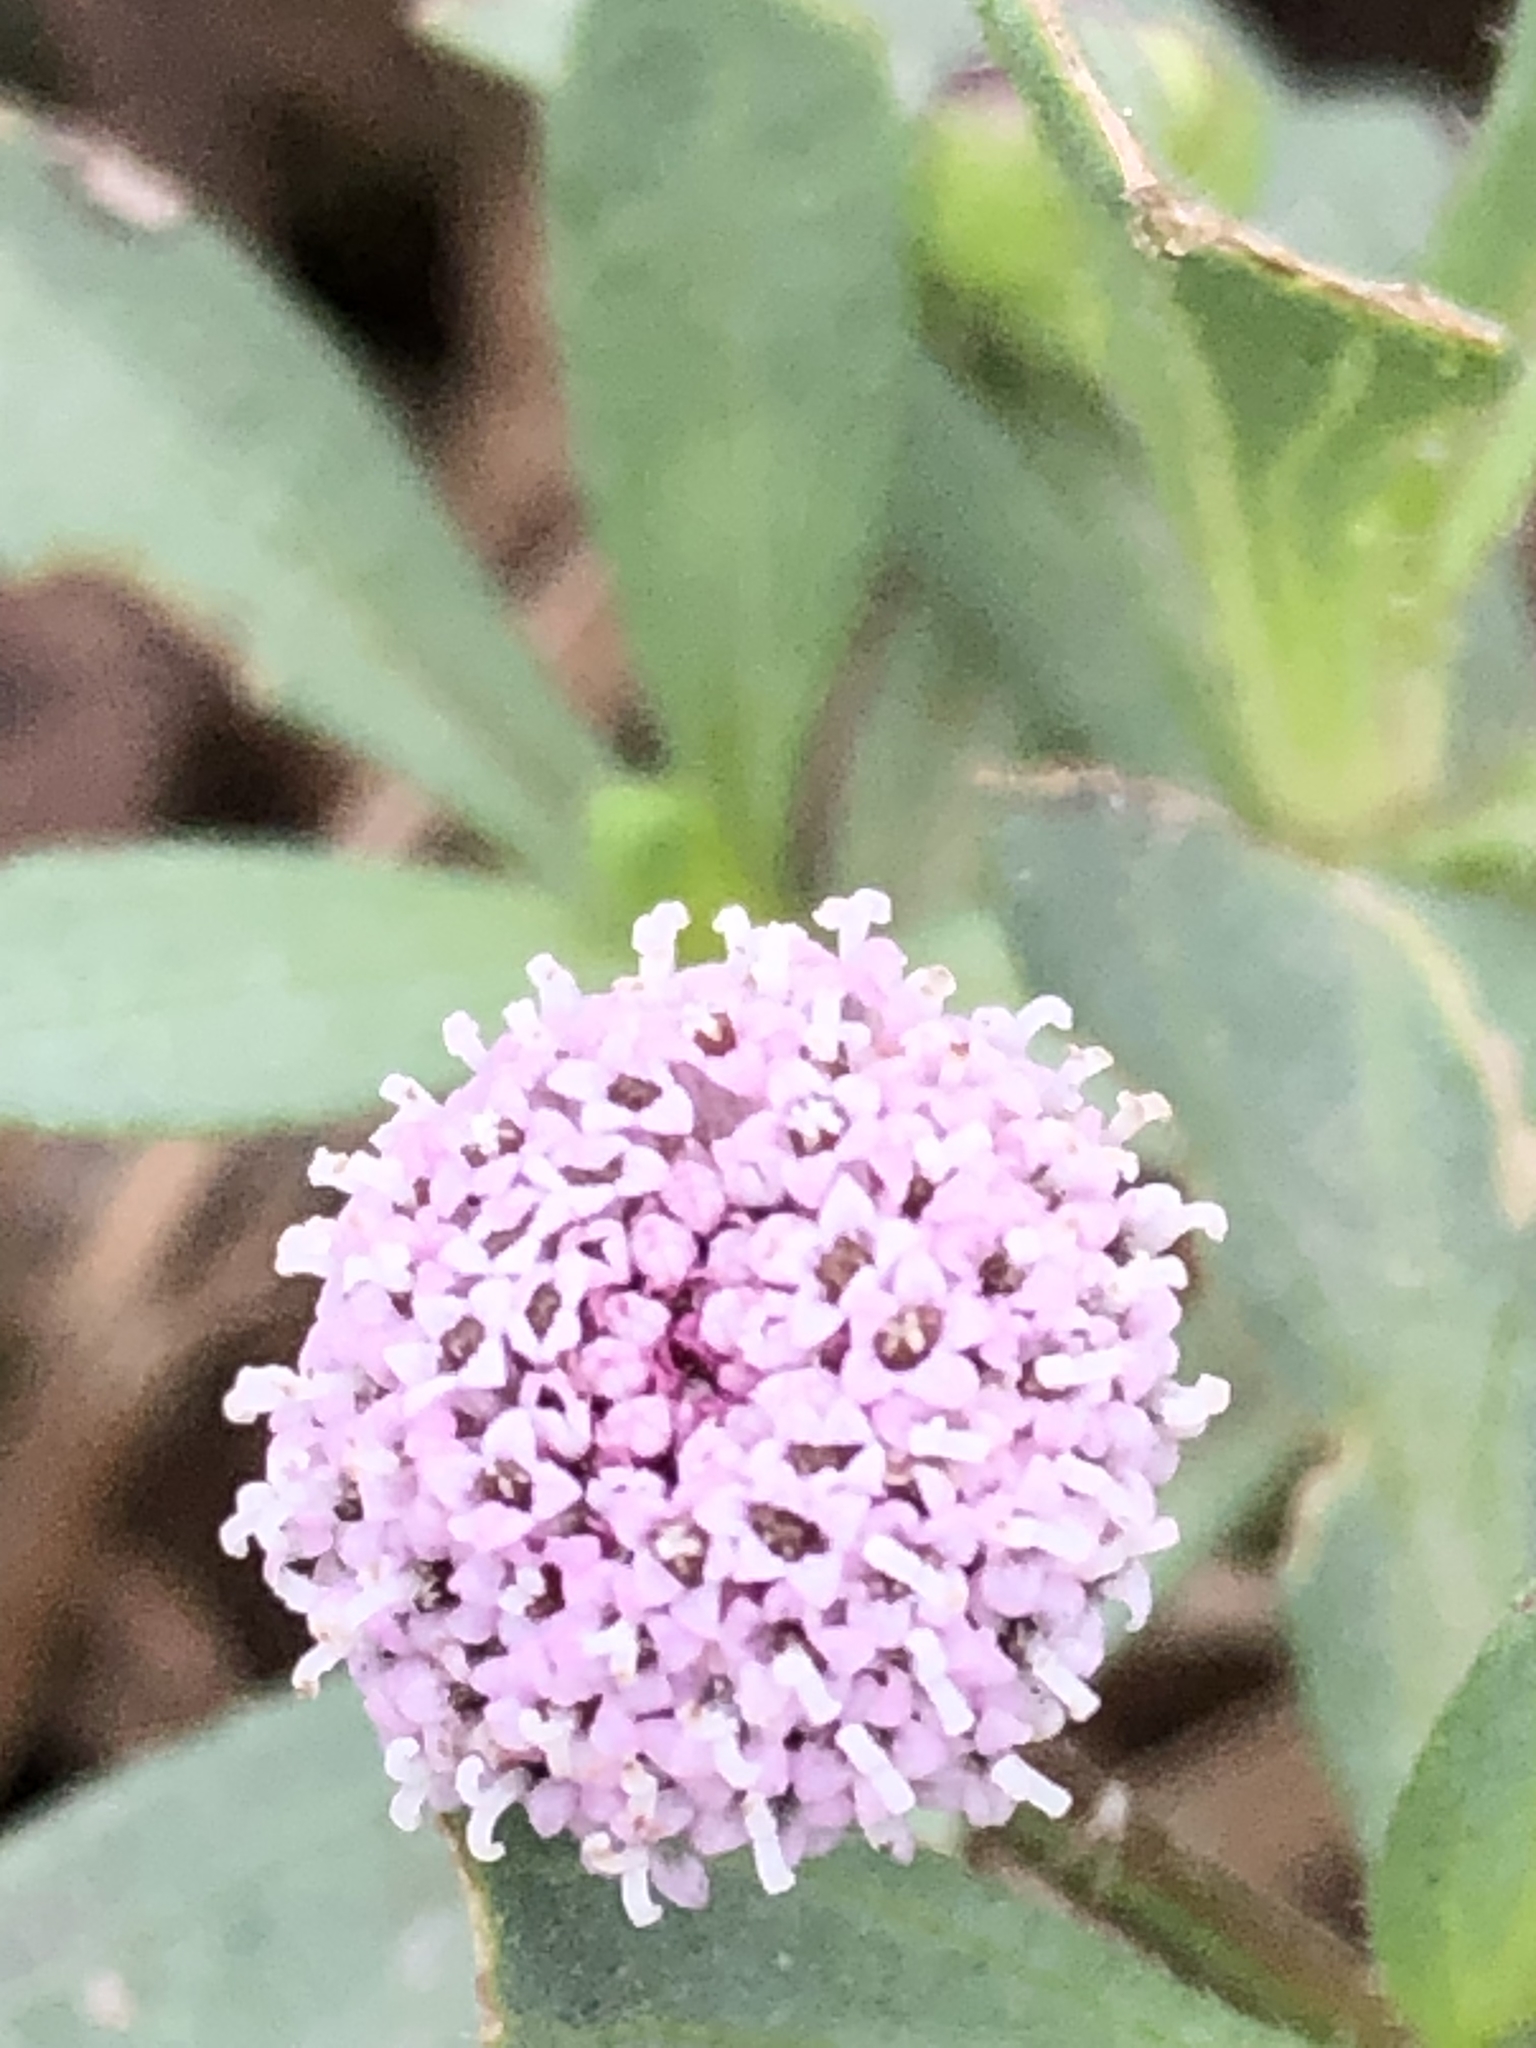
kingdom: Plantae
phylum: Tracheophyta
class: Magnoliopsida
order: Asterales
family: Asteraceae
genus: Spilanthes
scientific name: Spilanthes leiocarpa
